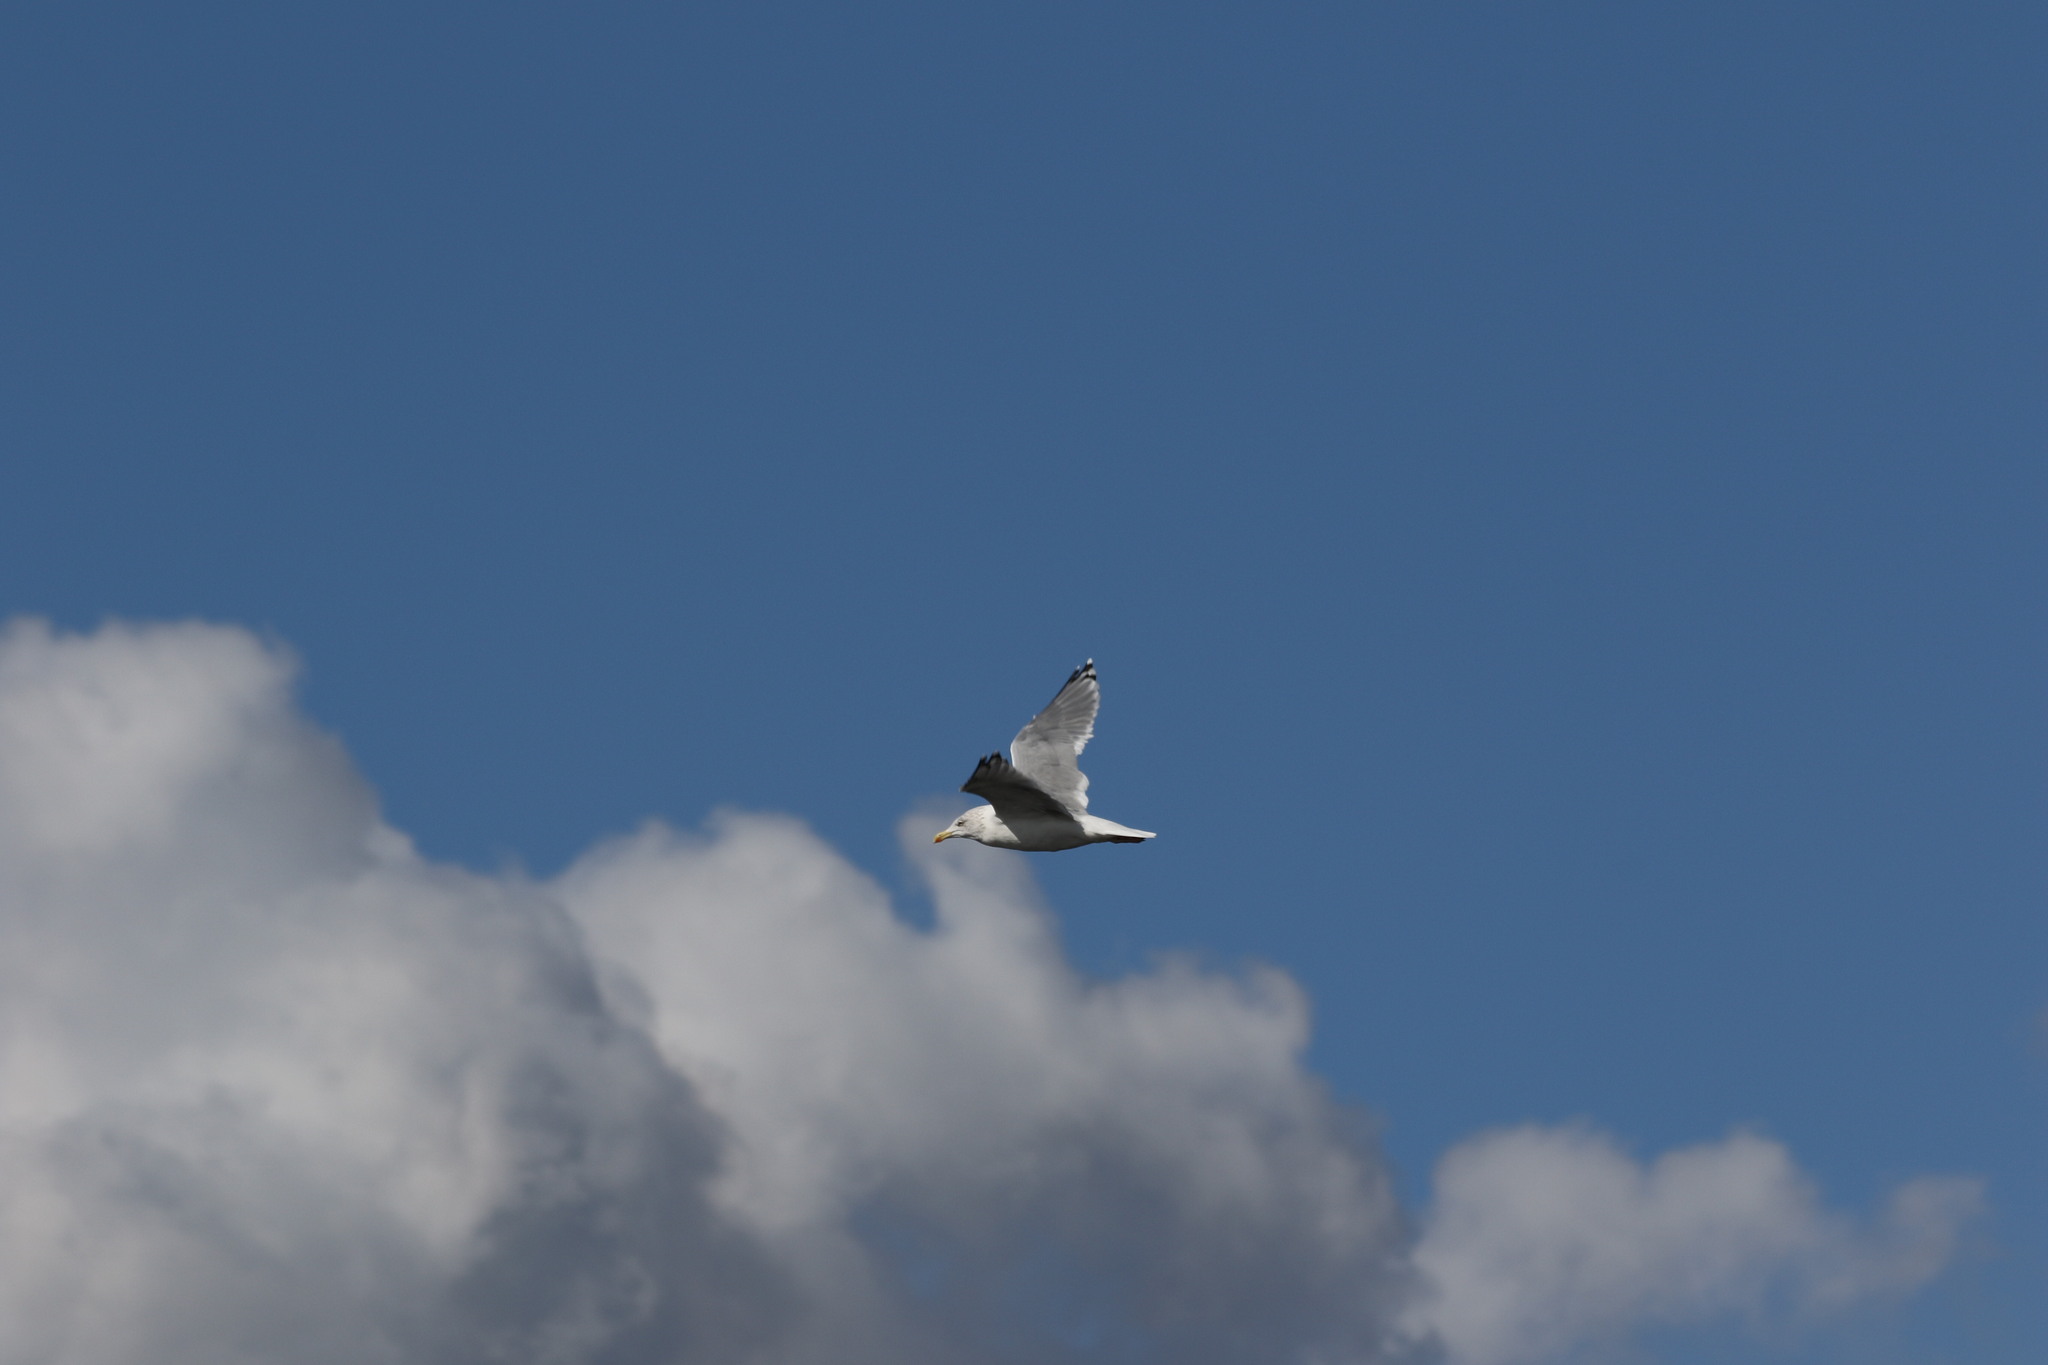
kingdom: Animalia
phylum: Chordata
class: Aves
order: Charadriiformes
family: Laridae
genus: Larus
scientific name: Larus argentatus
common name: Herring gull
